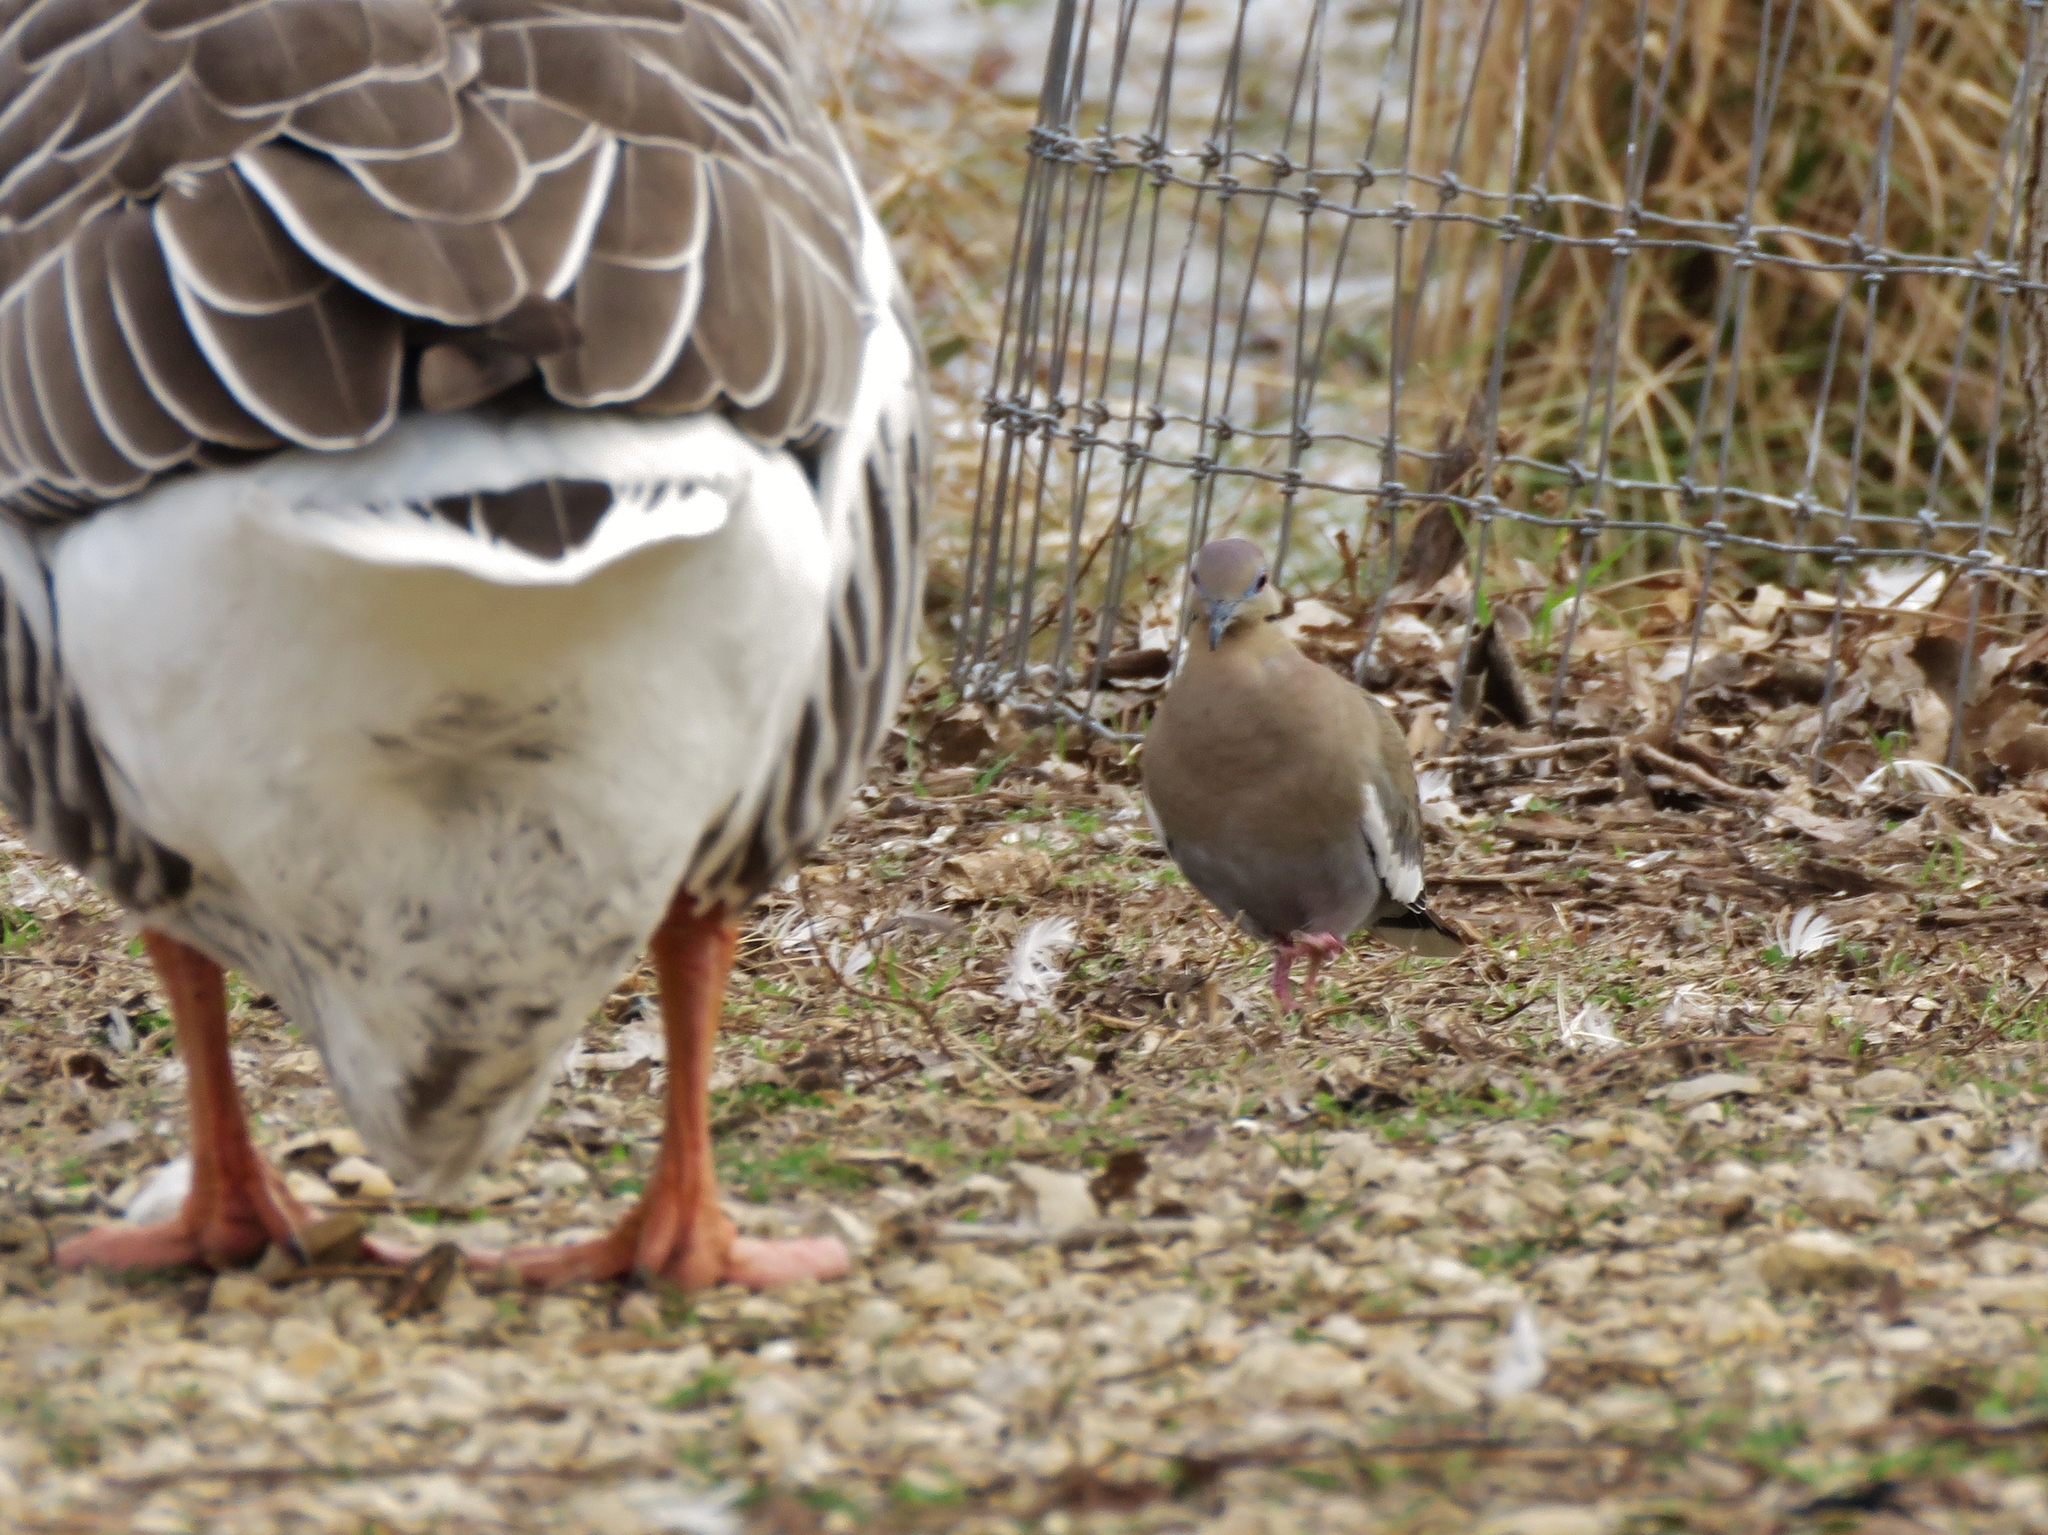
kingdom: Animalia
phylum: Chordata
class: Aves
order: Columbiformes
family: Columbidae
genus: Zenaida
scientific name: Zenaida asiatica
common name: White-winged dove
